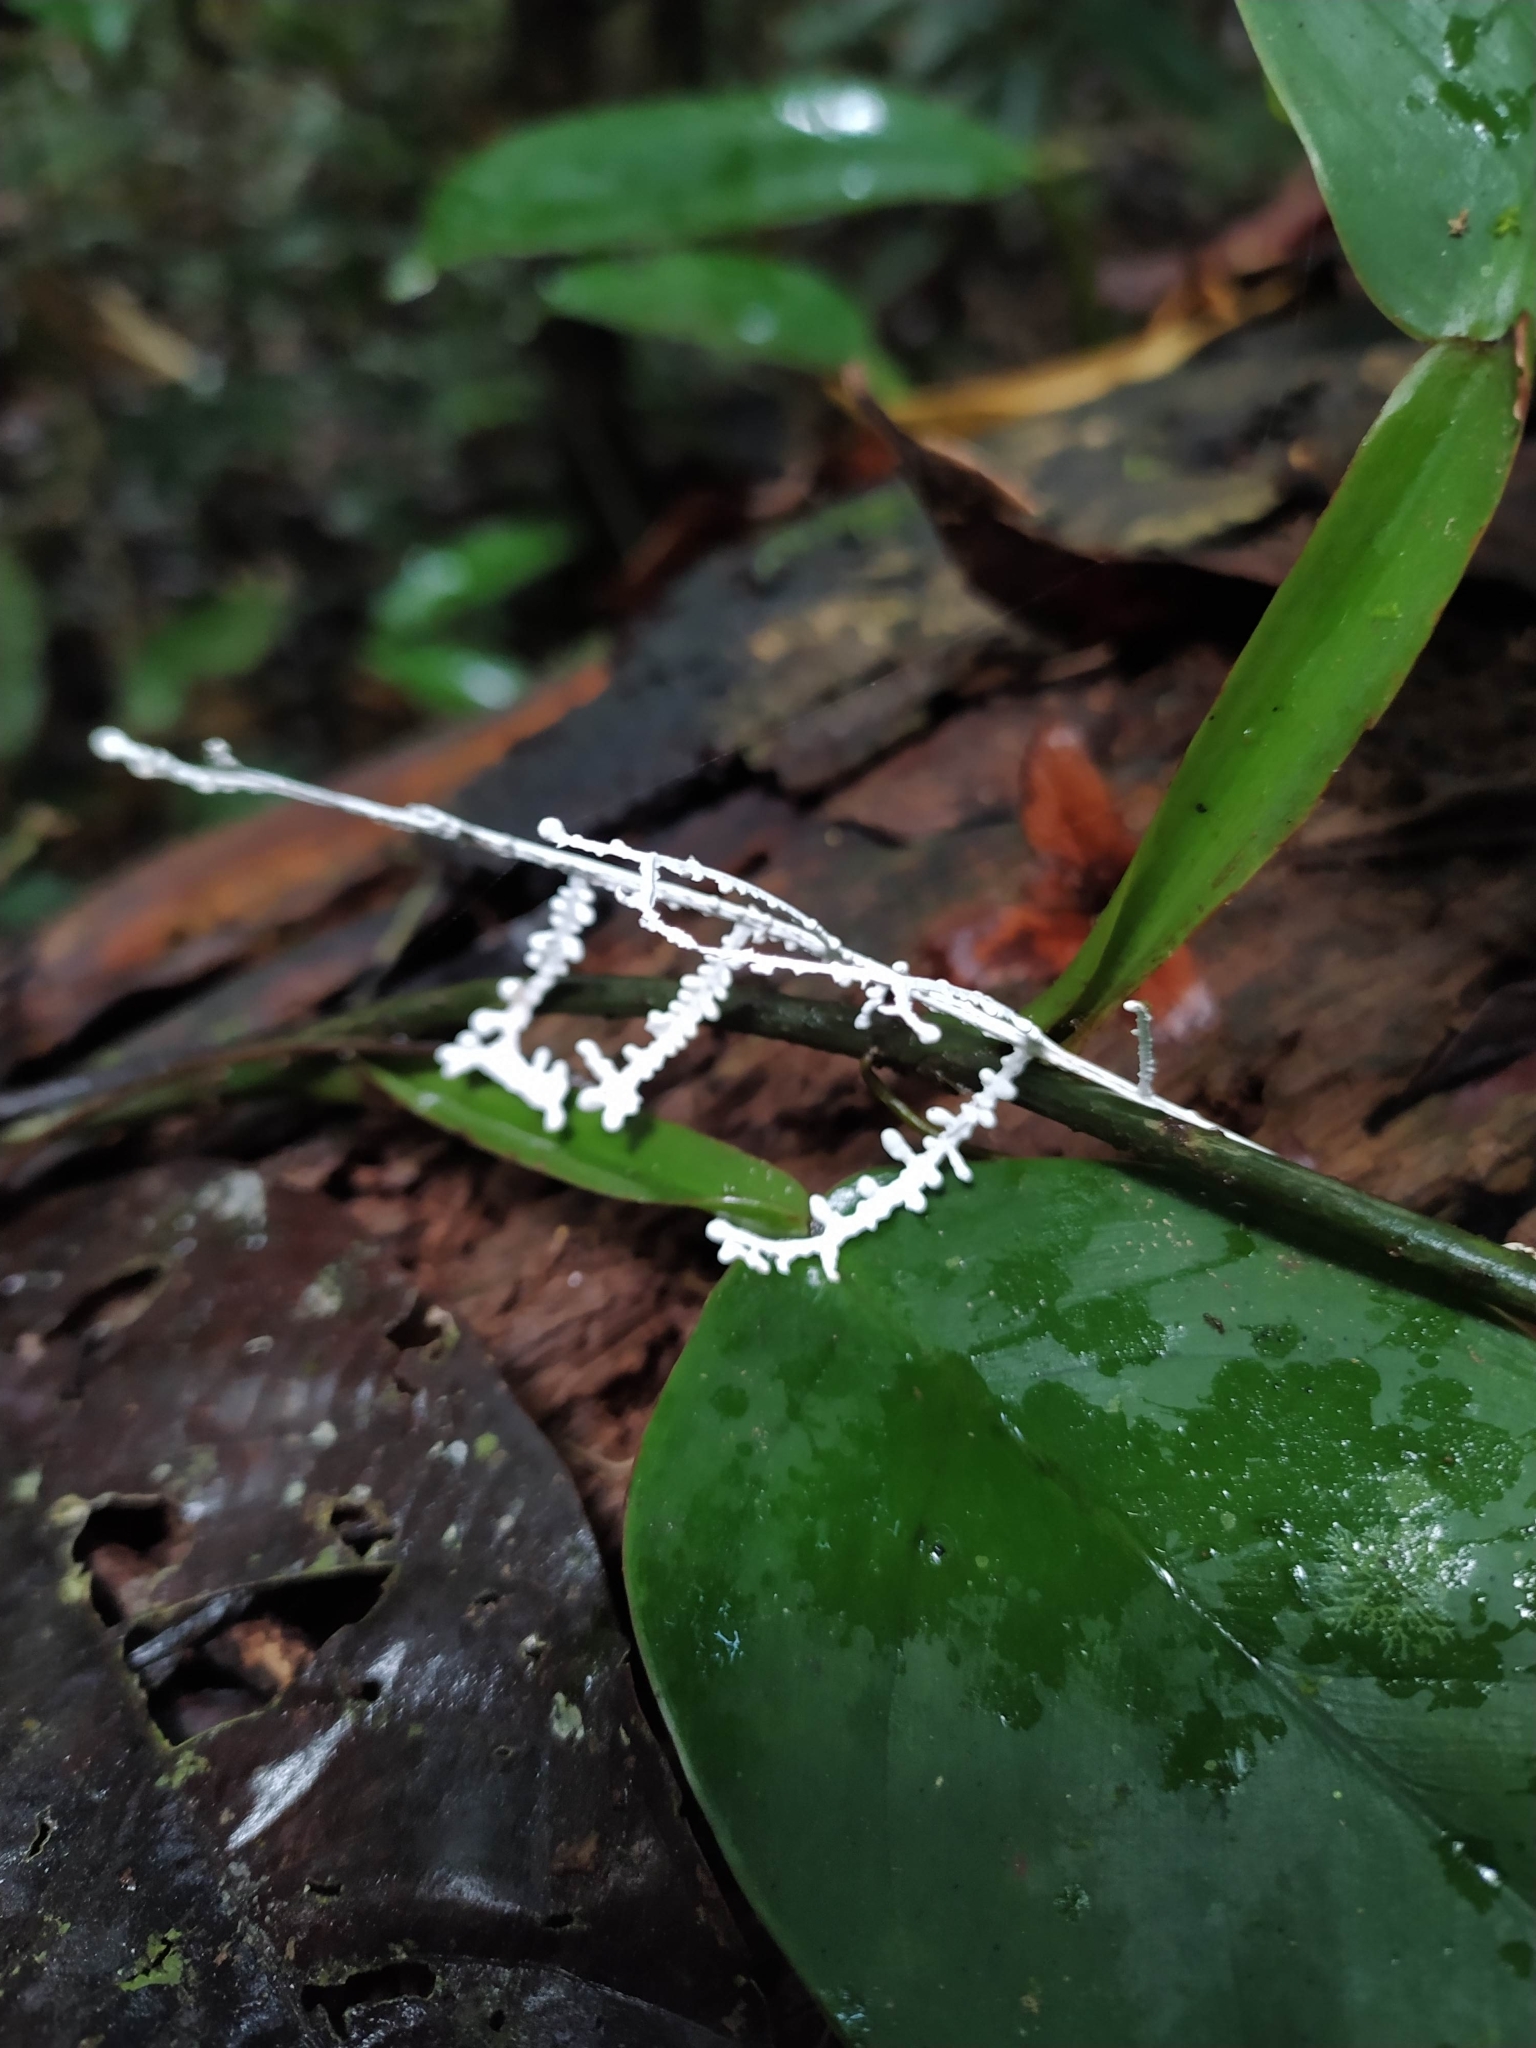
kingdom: Fungi
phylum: Basidiomycota
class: Agaricomycetes
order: Agaricales
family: Marasmiaceae
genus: Brunneocorticium
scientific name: Brunneocorticium corynecarpon
